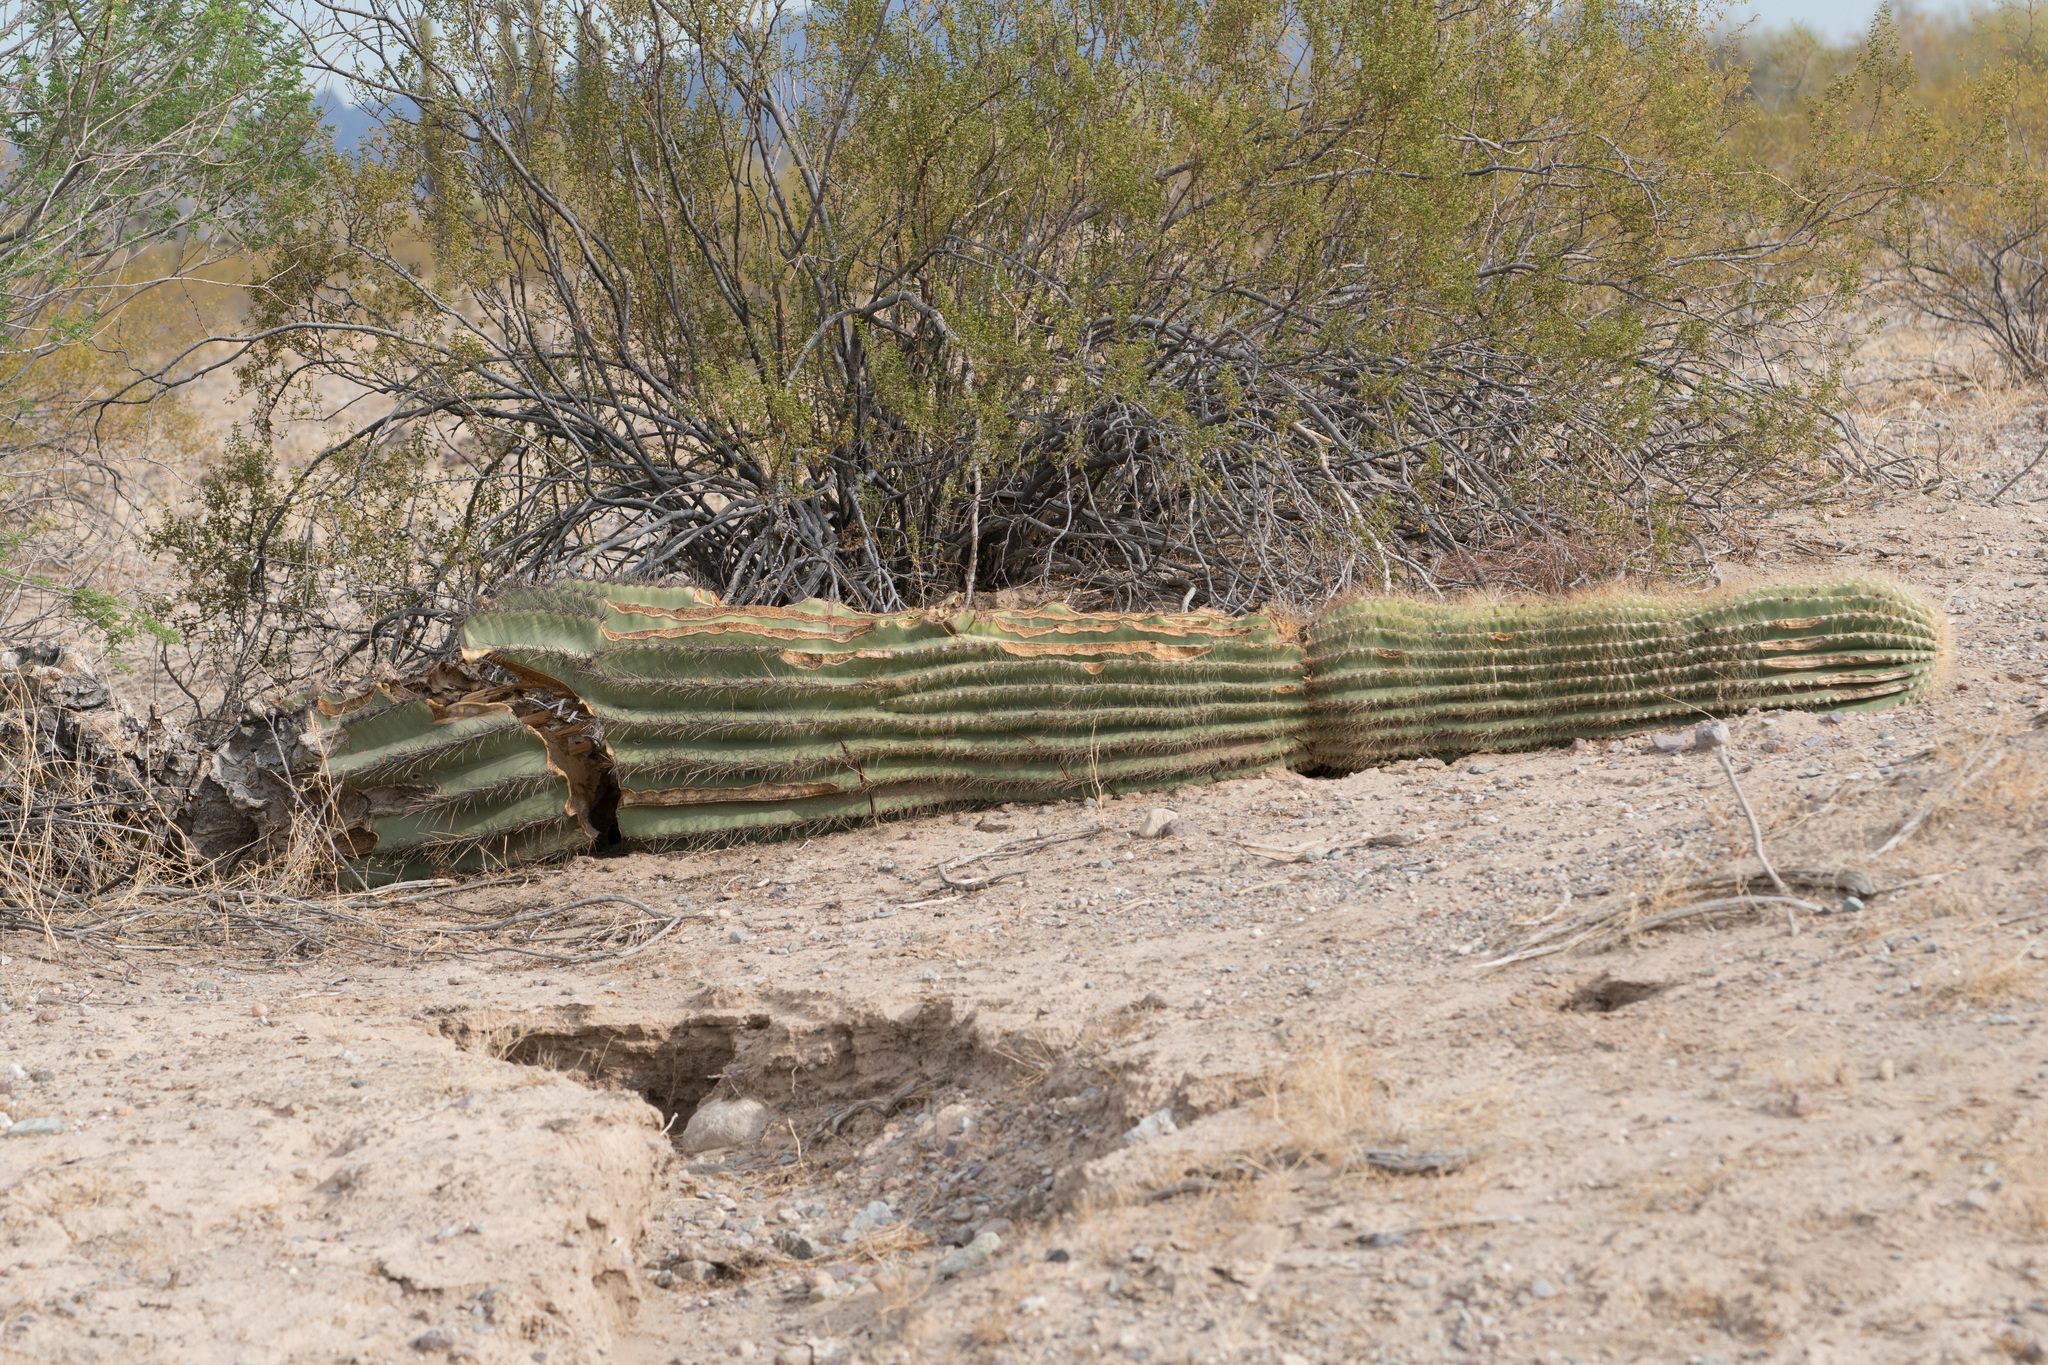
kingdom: Plantae
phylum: Tracheophyta
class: Magnoliopsida
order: Caryophyllales
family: Cactaceae
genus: Carnegiea
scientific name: Carnegiea gigantea
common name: Saguaro
